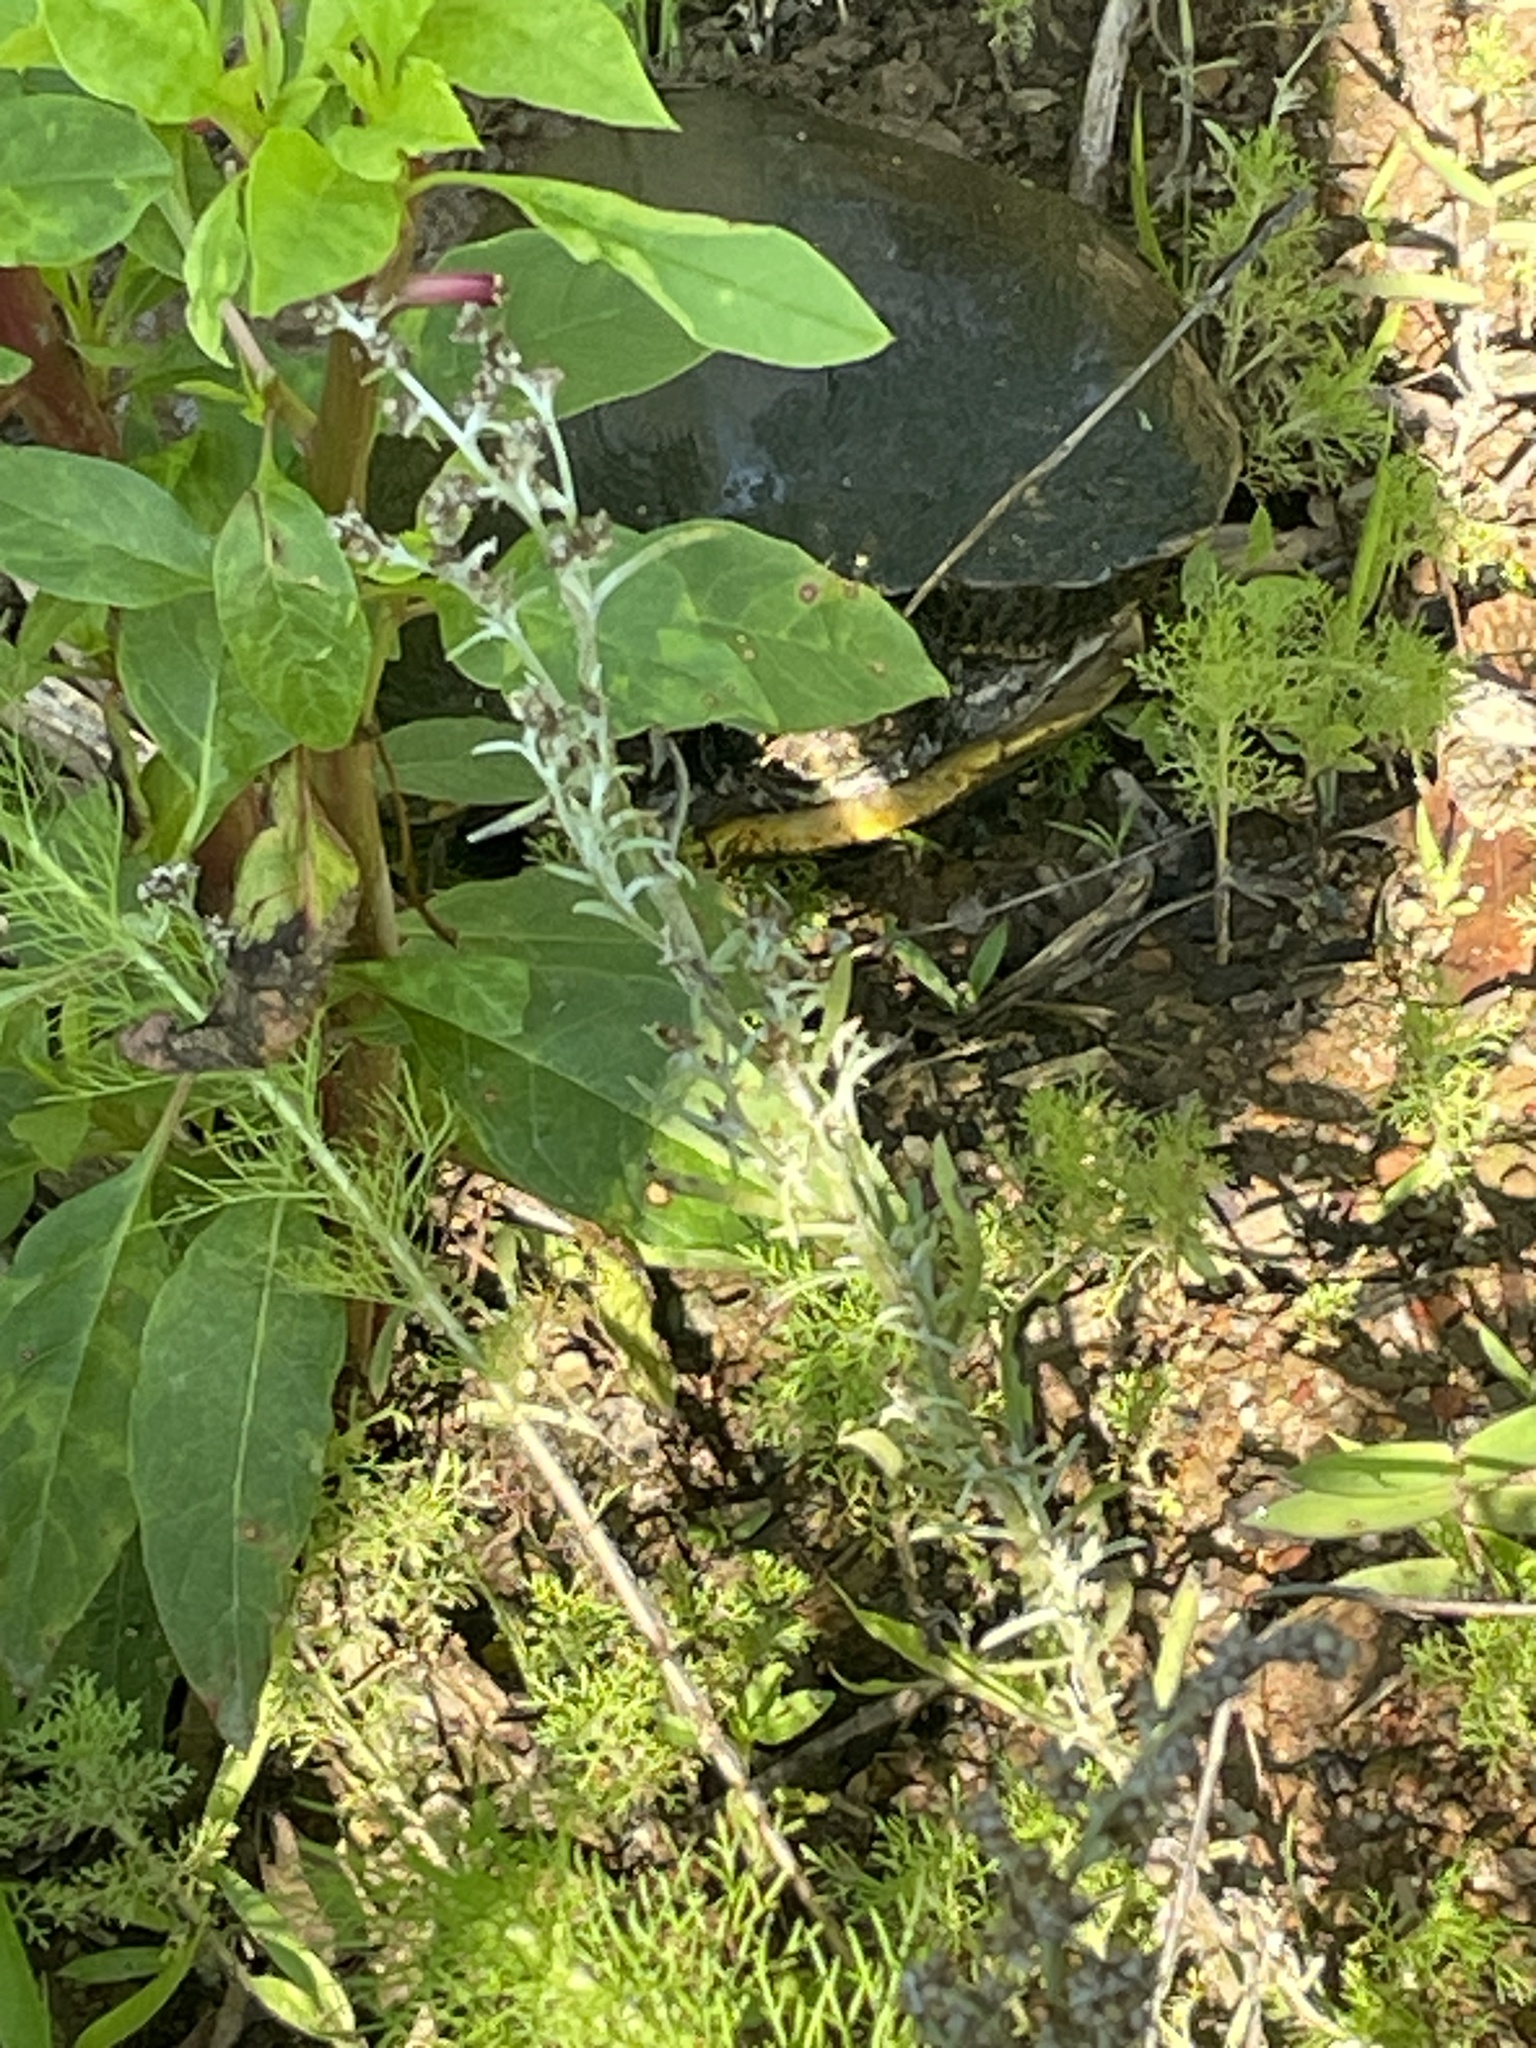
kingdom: Animalia
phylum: Chordata
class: Testudines
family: Emydidae
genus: Trachemys
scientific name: Trachemys scripta
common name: Slider
